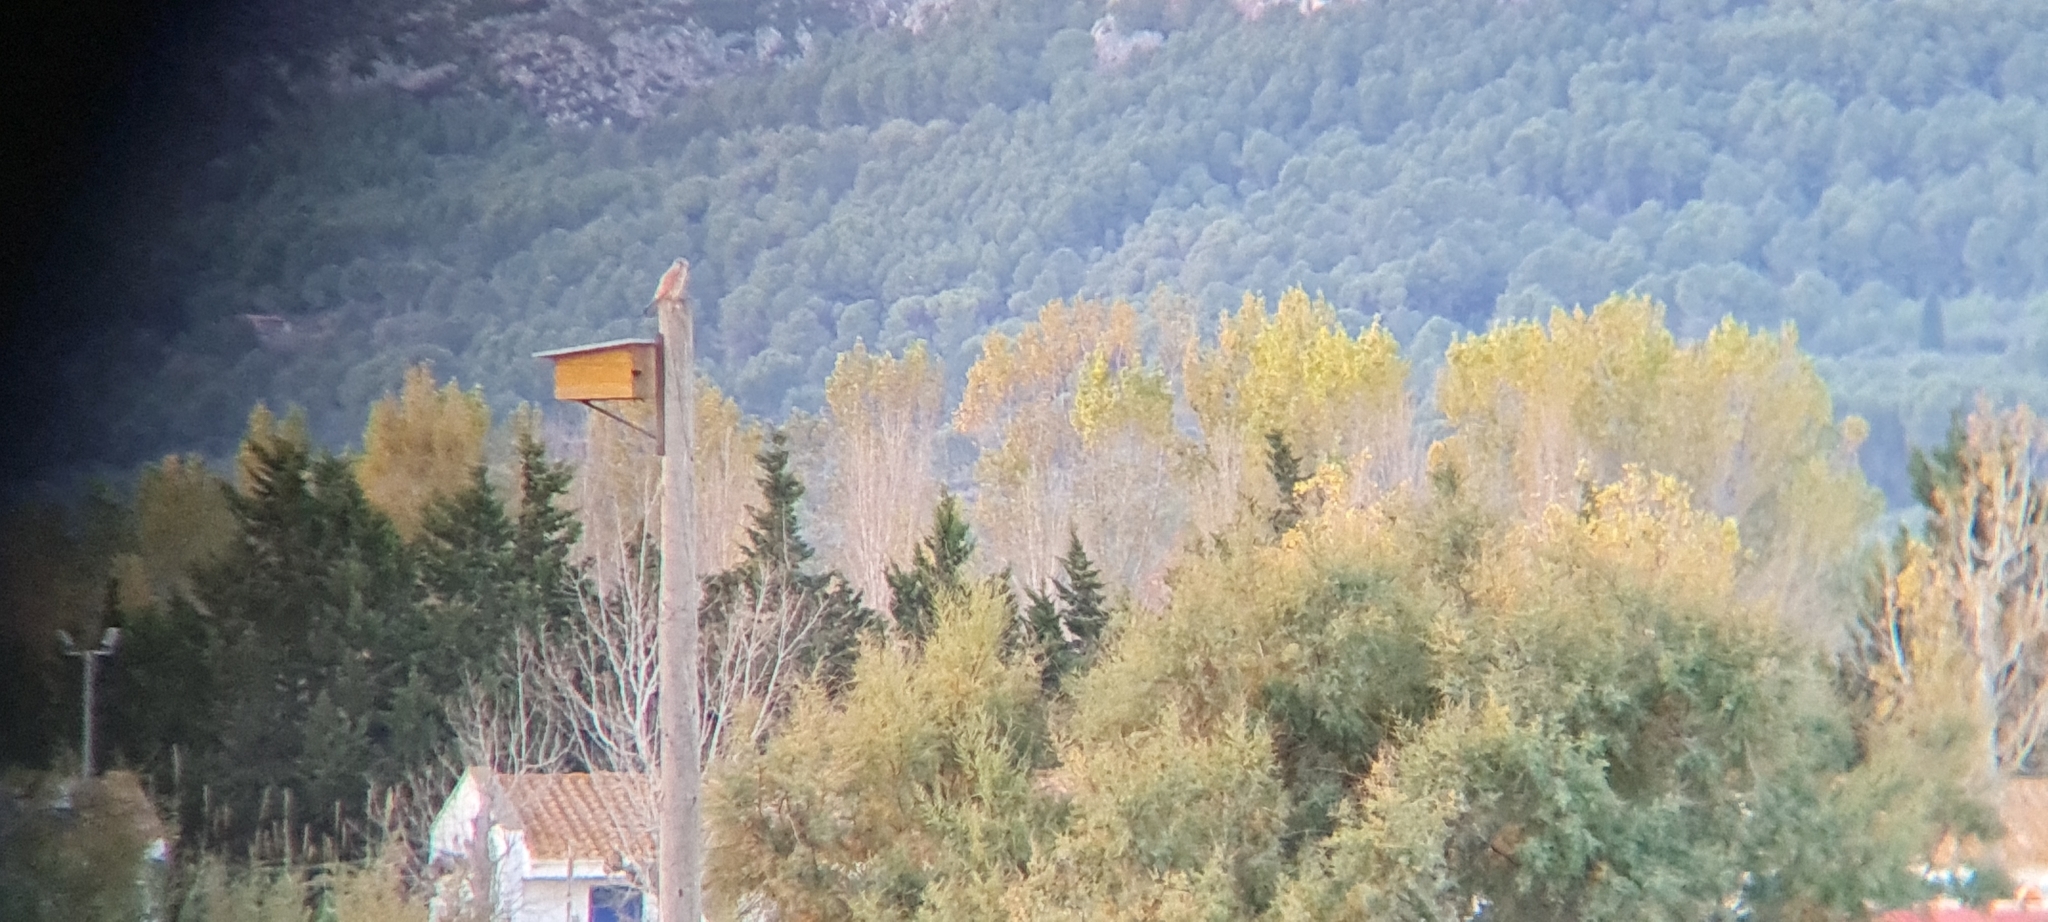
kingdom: Animalia
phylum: Chordata
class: Aves
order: Falconiformes
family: Falconidae
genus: Falco
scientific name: Falco tinnunculus
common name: Common kestrel
